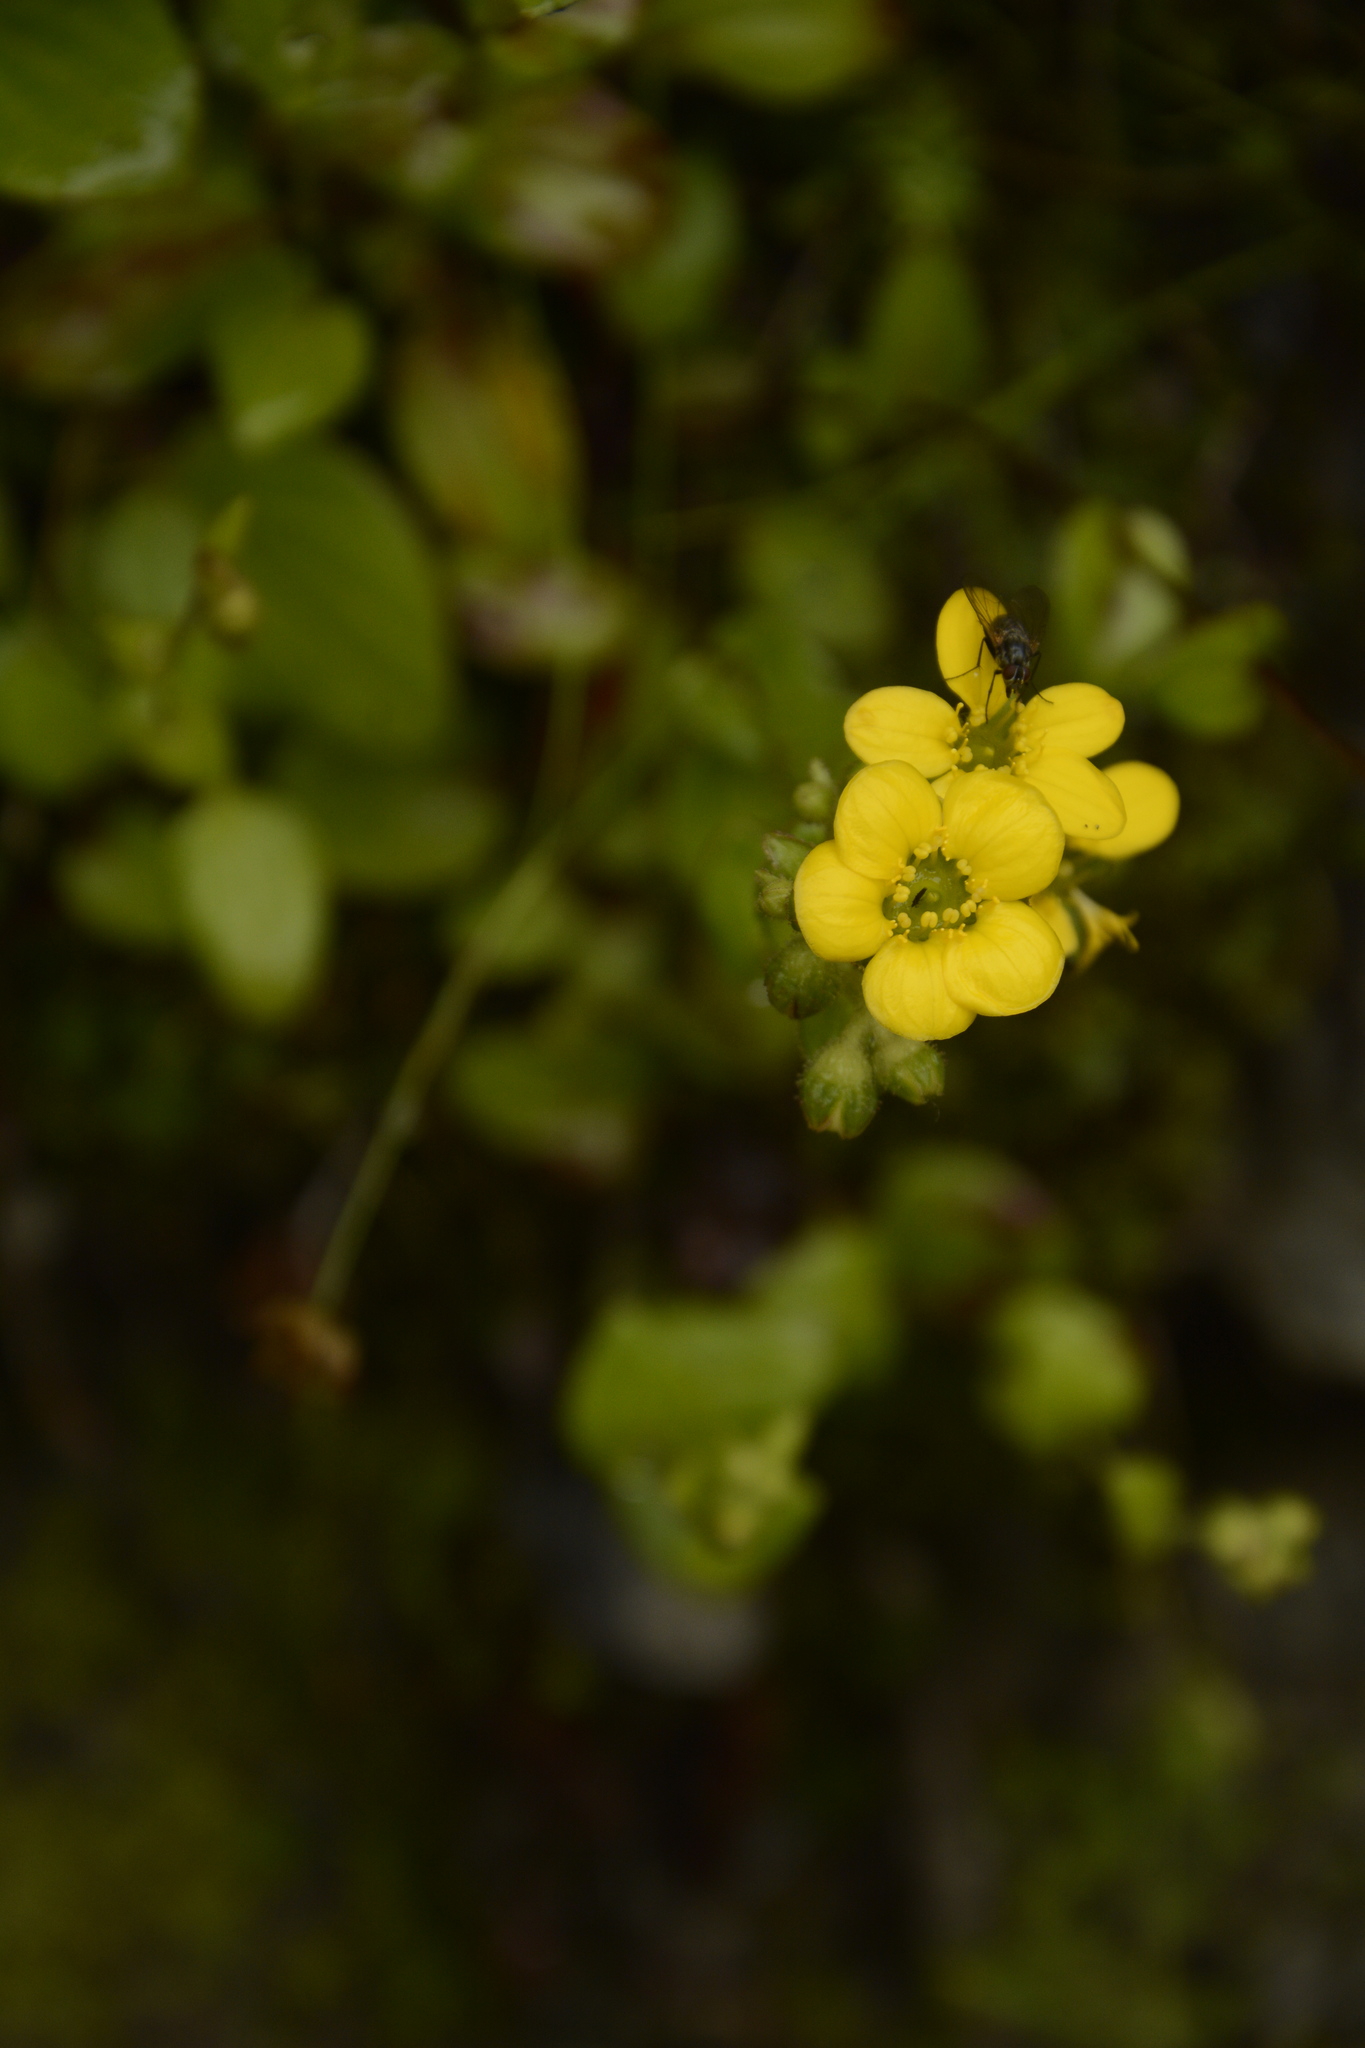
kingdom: Plantae
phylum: Tracheophyta
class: Magnoliopsida
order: Saxifragales
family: Saxifragaceae
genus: Saxifraga
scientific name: Saxifraga parnassifolia
